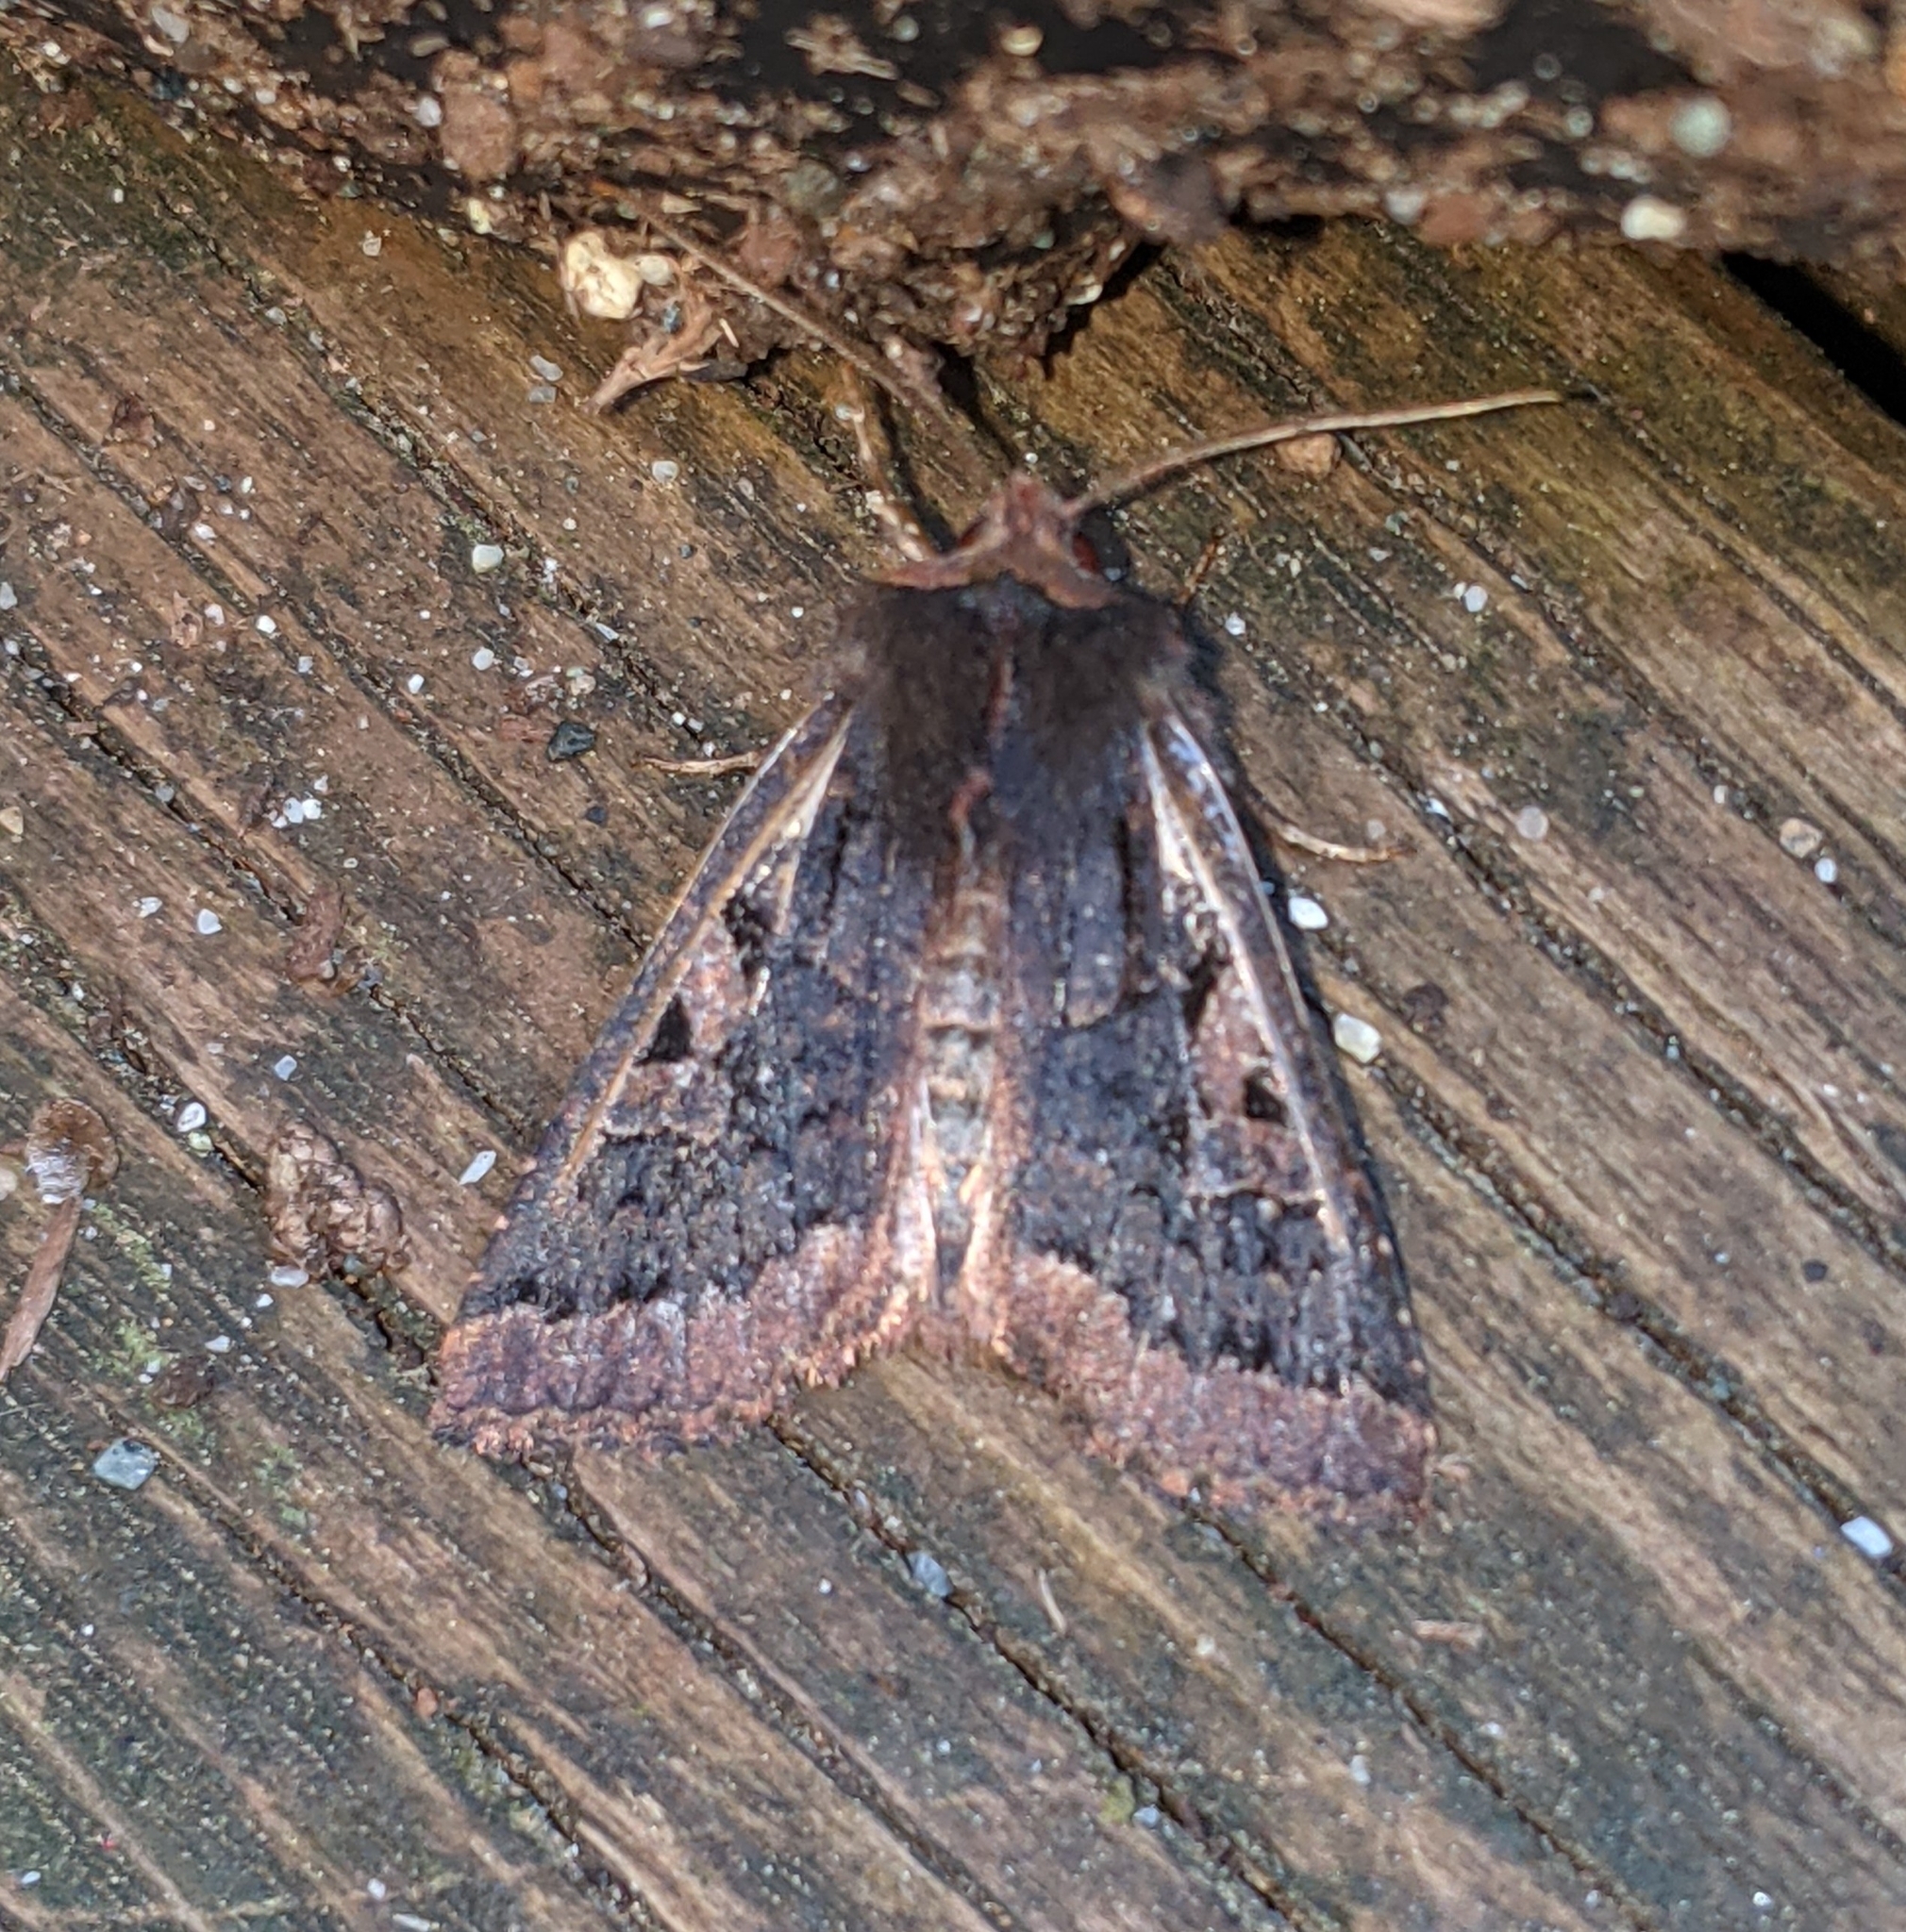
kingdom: Animalia
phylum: Arthropoda
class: Insecta
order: Lepidoptera
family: Noctuidae
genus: Orthosia
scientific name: Orthosia praeses
